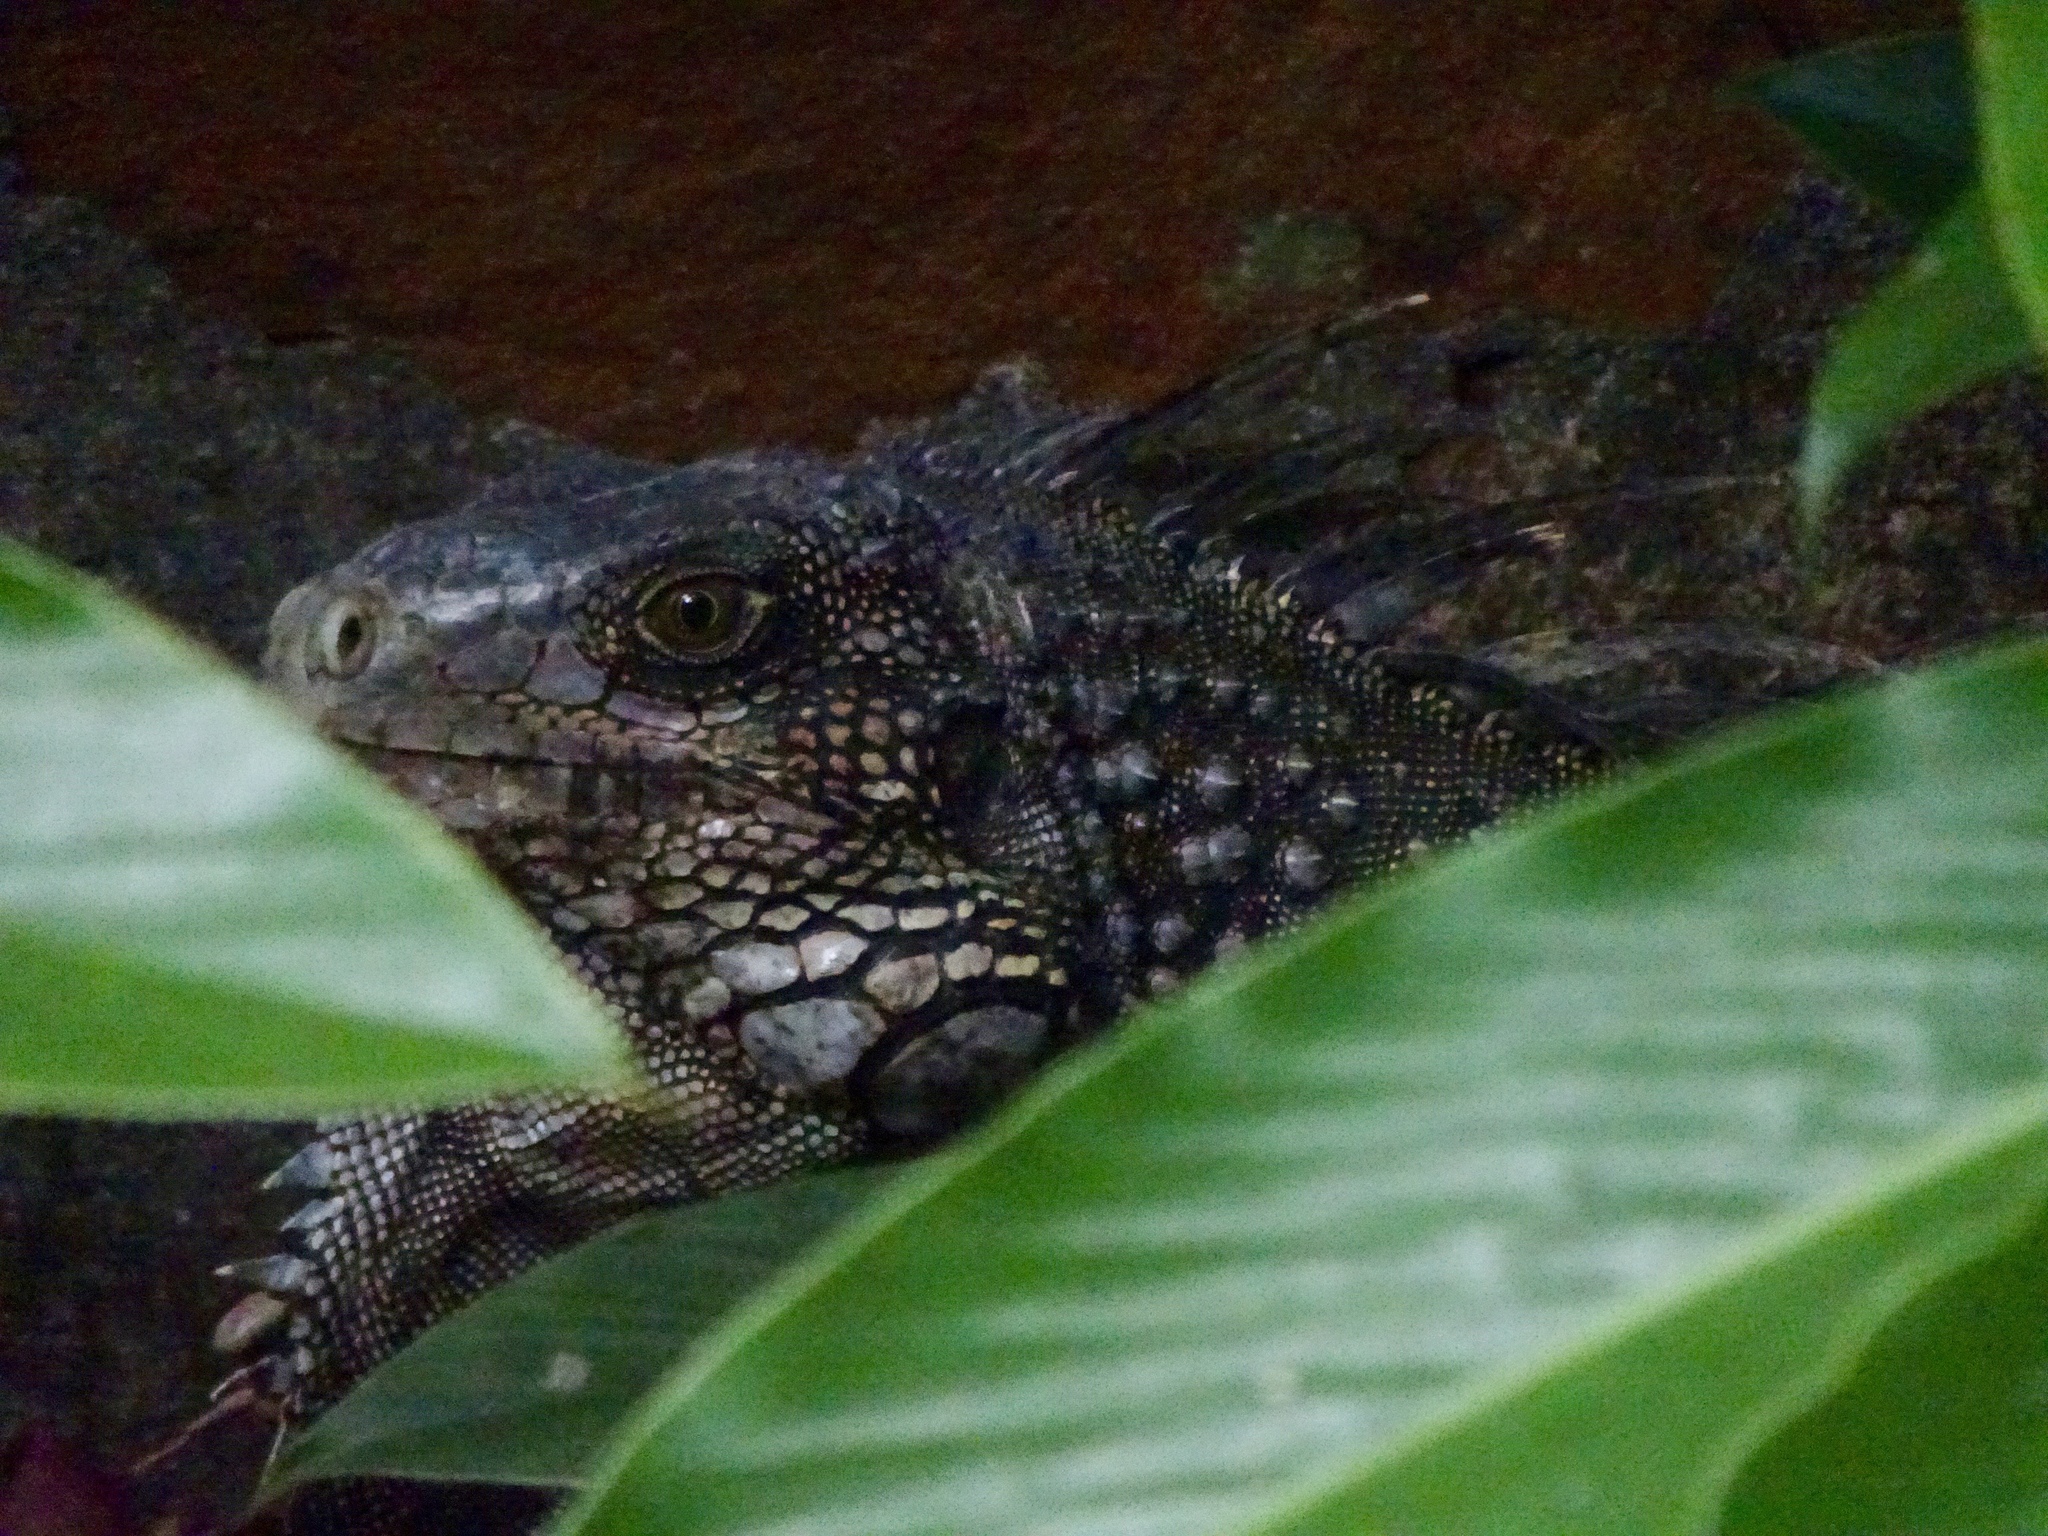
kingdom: Animalia
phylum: Chordata
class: Squamata
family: Iguanidae
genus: Iguana
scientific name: Iguana iguana
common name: Green iguana
